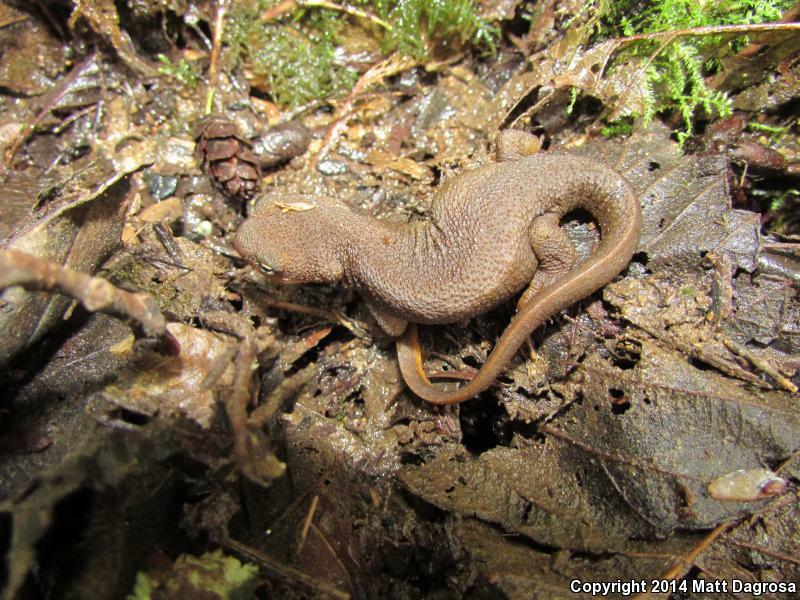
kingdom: Animalia
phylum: Chordata
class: Amphibia
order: Caudata
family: Salamandridae
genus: Taricha
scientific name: Taricha granulosa
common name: Roughskin newt
